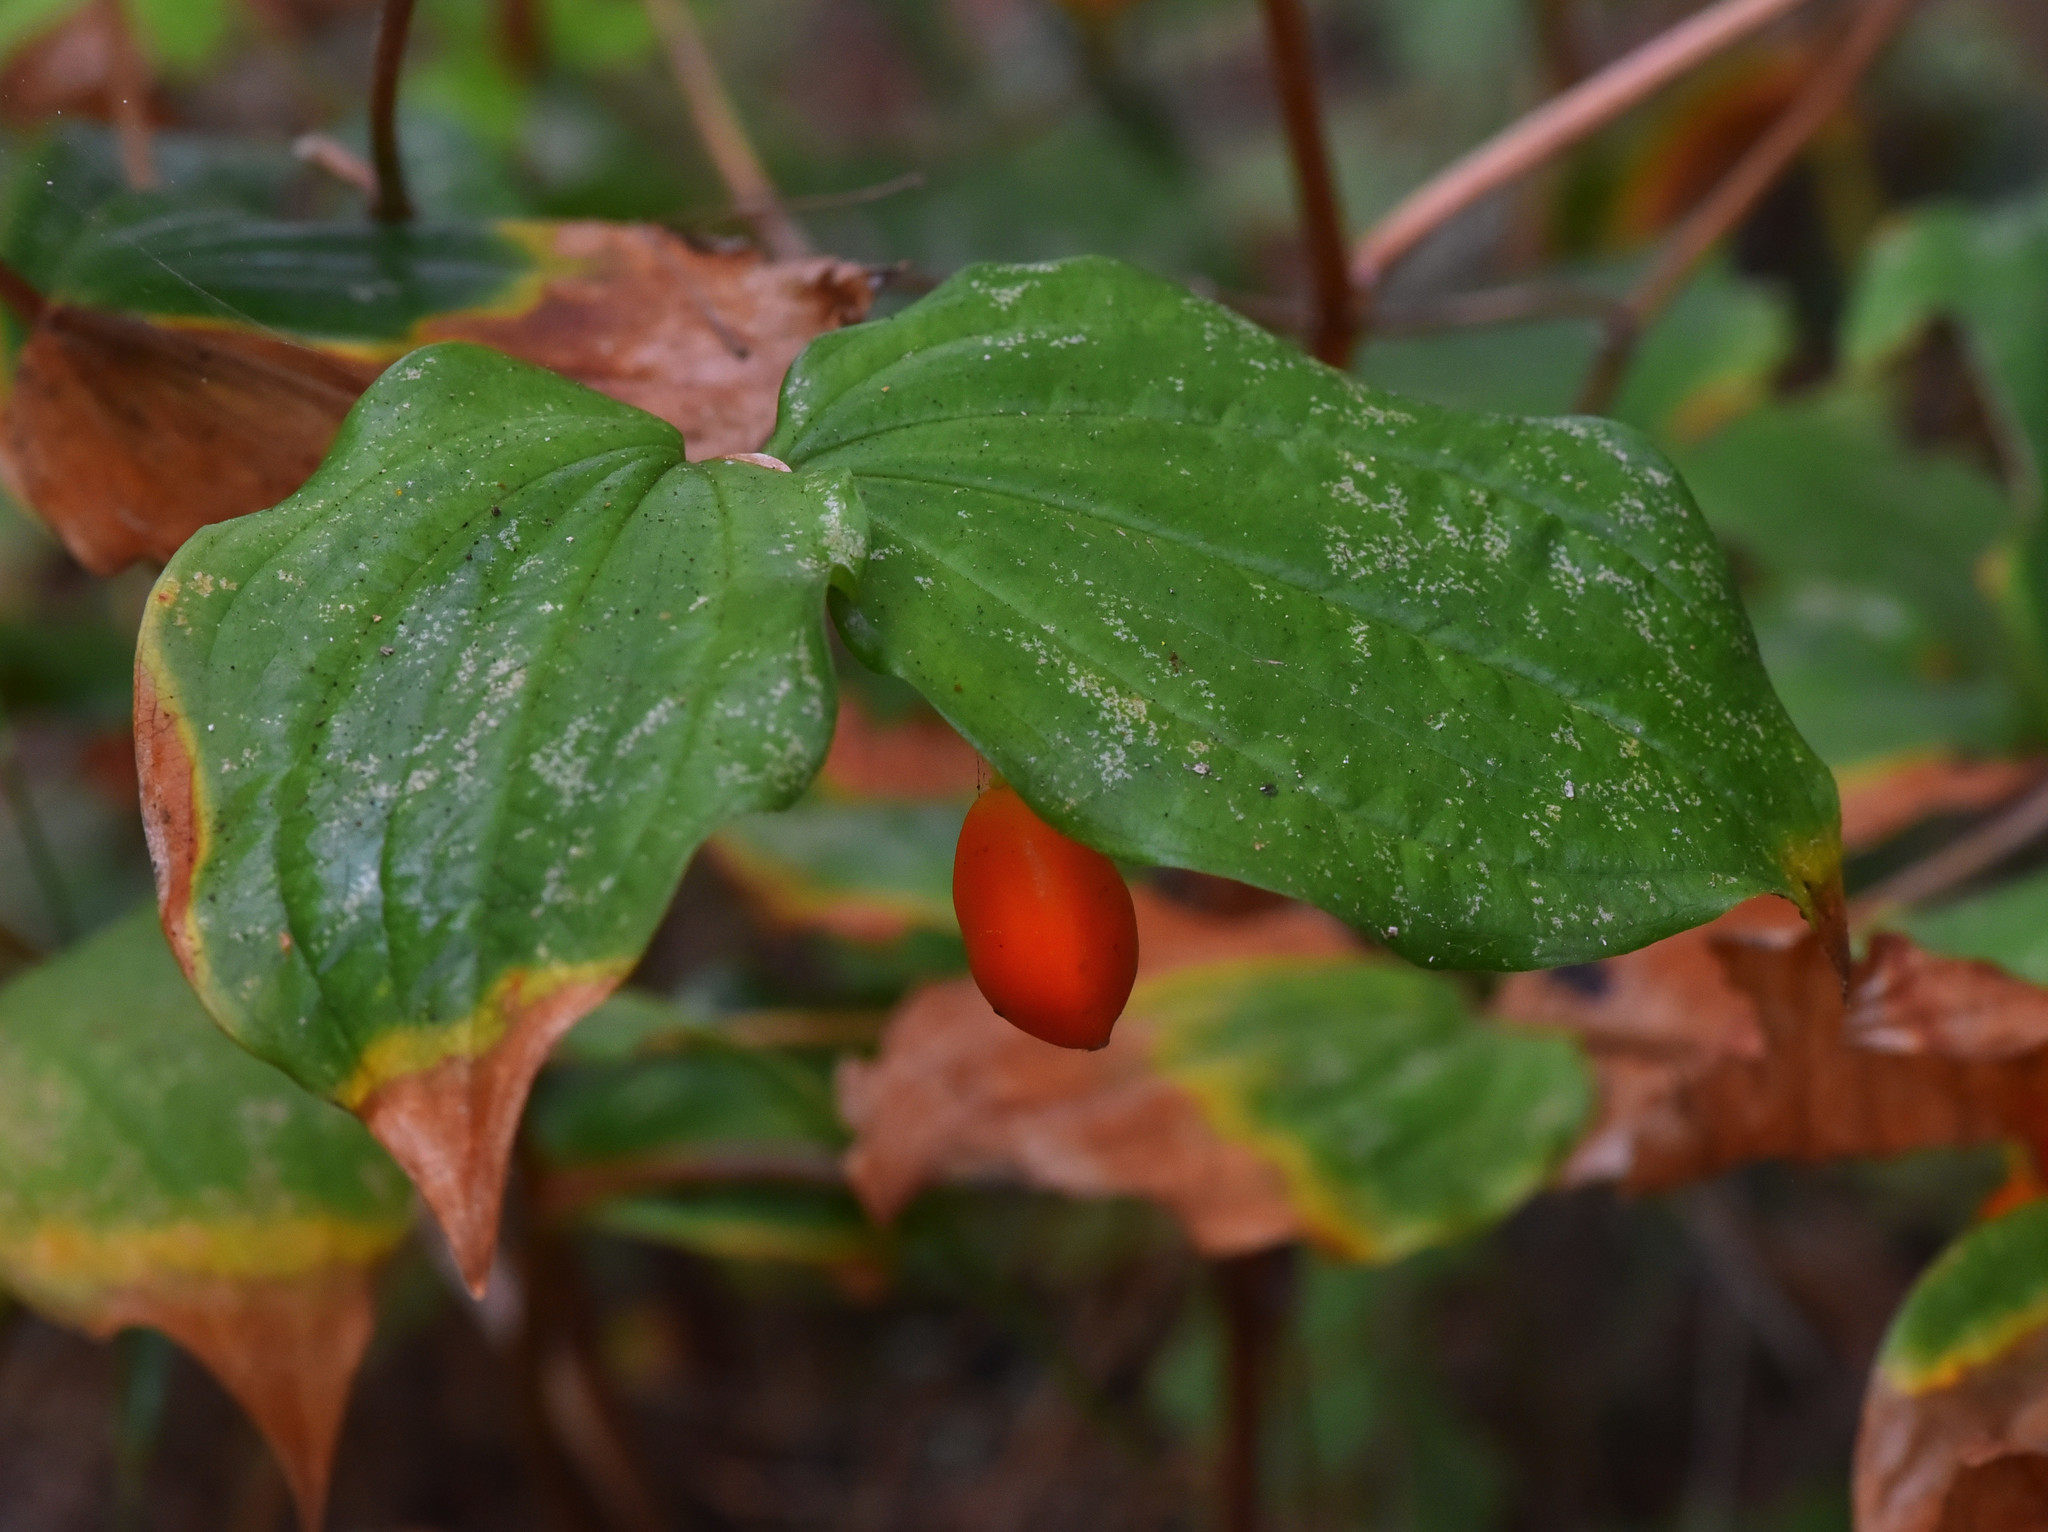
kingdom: Plantae
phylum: Tracheophyta
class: Liliopsida
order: Liliales
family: Liliaceae
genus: Prosartes
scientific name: Prosartes smithii
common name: Fairy-lantern
